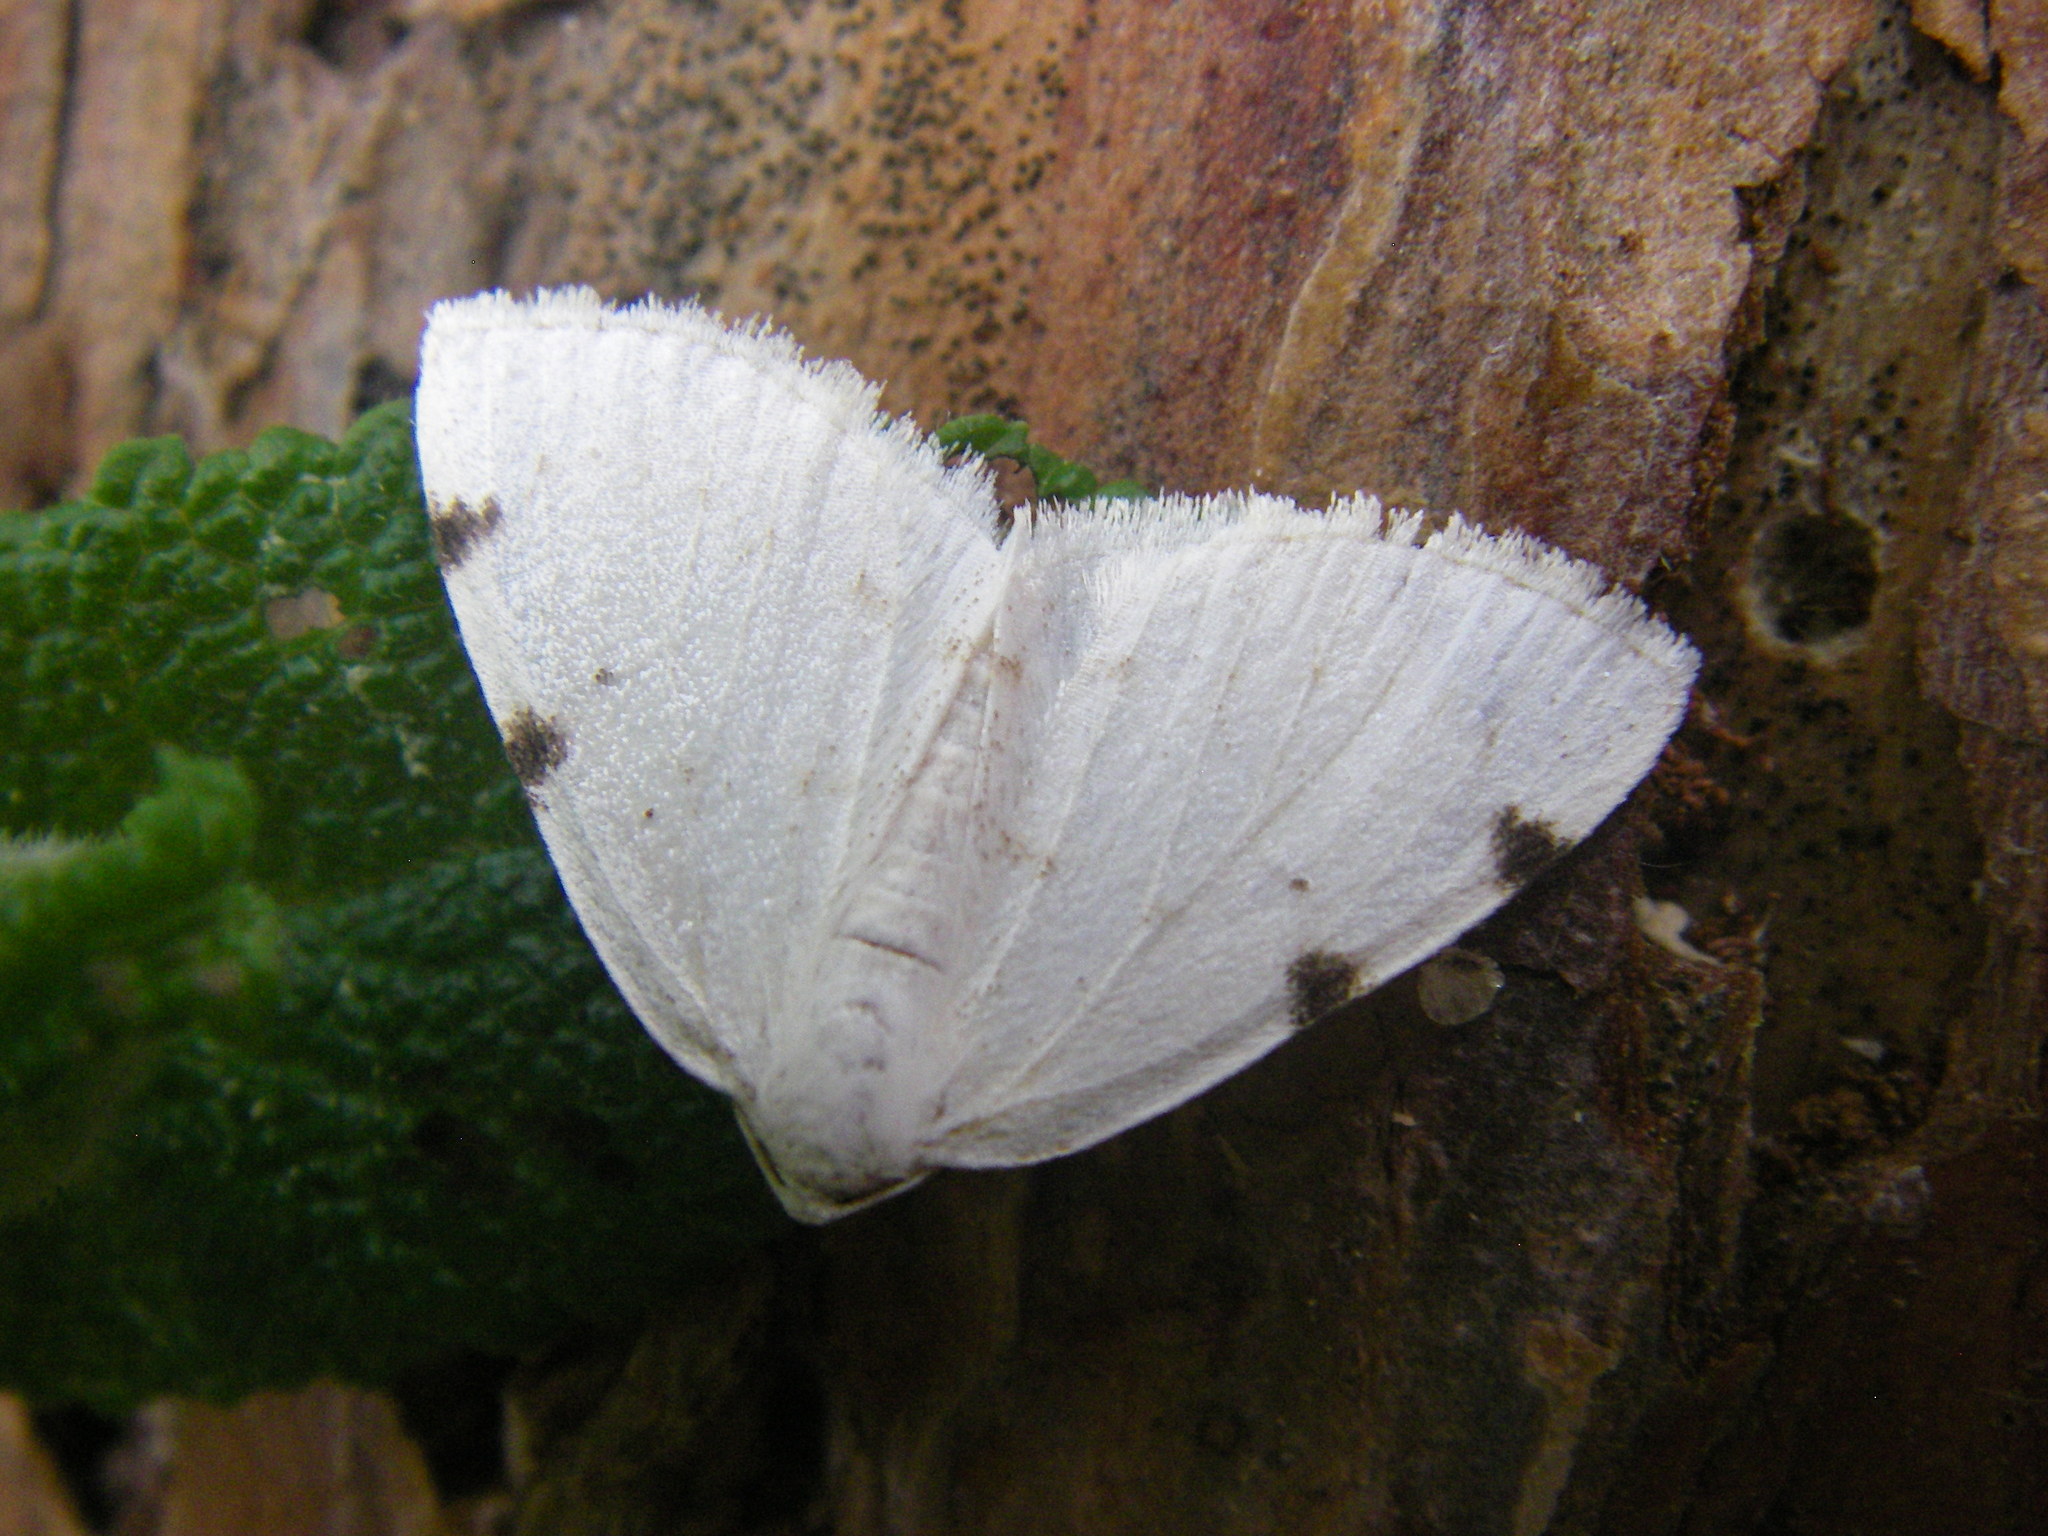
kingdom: Animalia
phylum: Arthropoda
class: Insecta
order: Lepidoptera
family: Geometridae
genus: Lomographa
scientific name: Lomographa bimaculata
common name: White-pinion spotted
